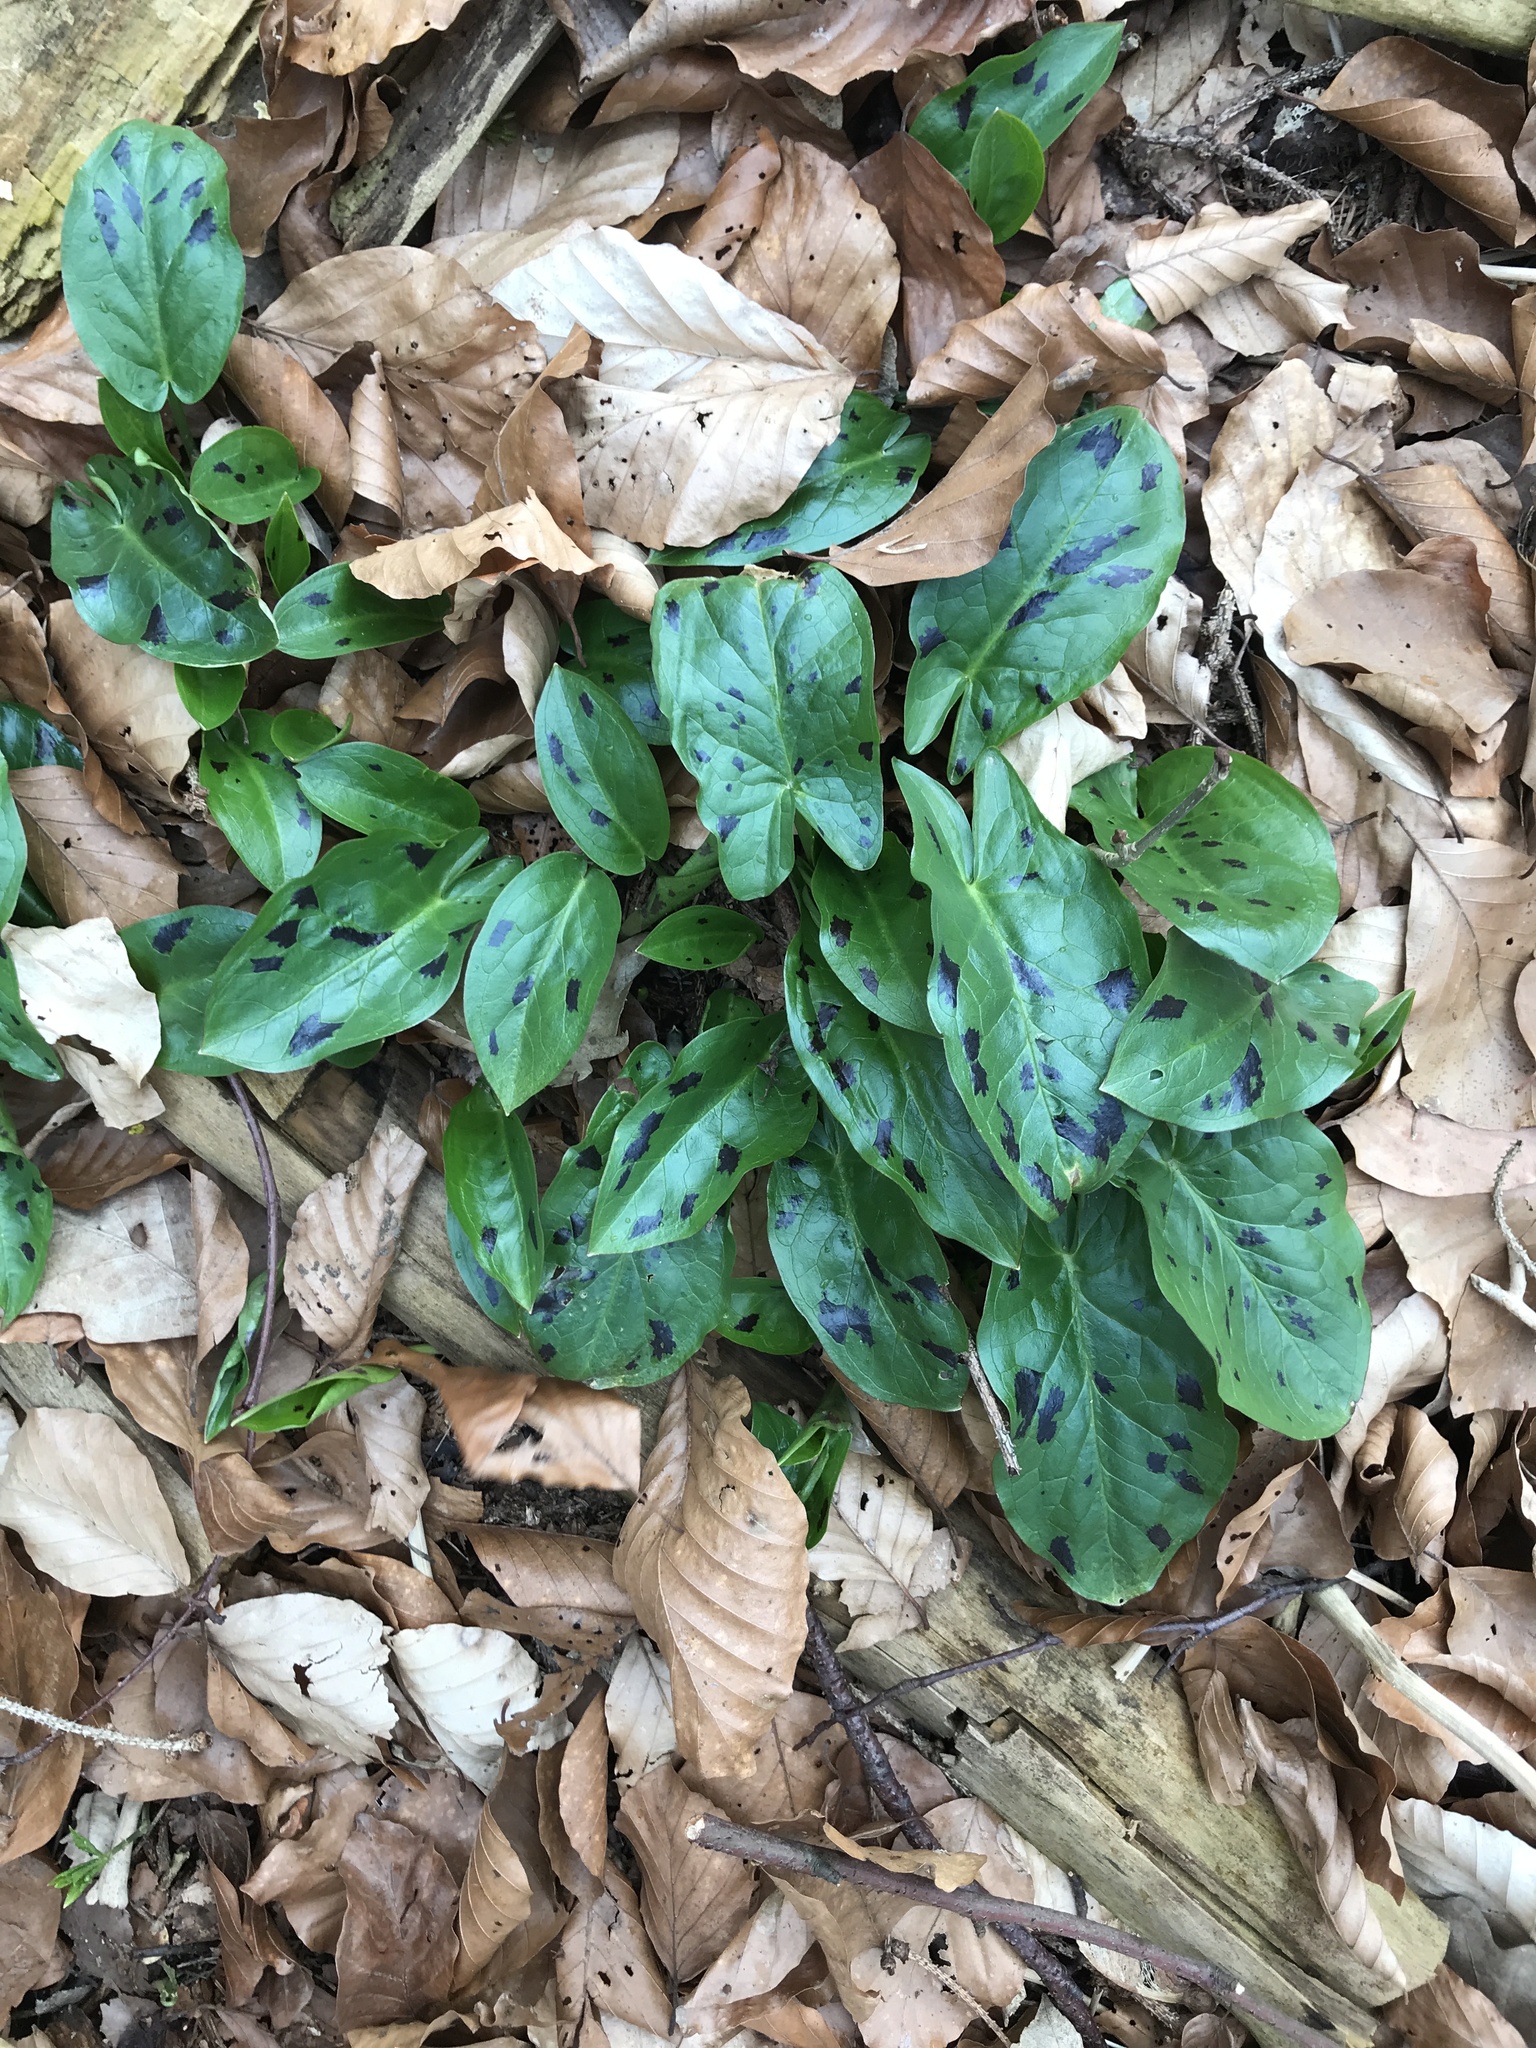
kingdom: Plantae
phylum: Tracheophyta
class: Liliopsida
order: Alismatales
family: Araceae
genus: Arum
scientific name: Arum maculatum
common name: Lords-and-ladies
